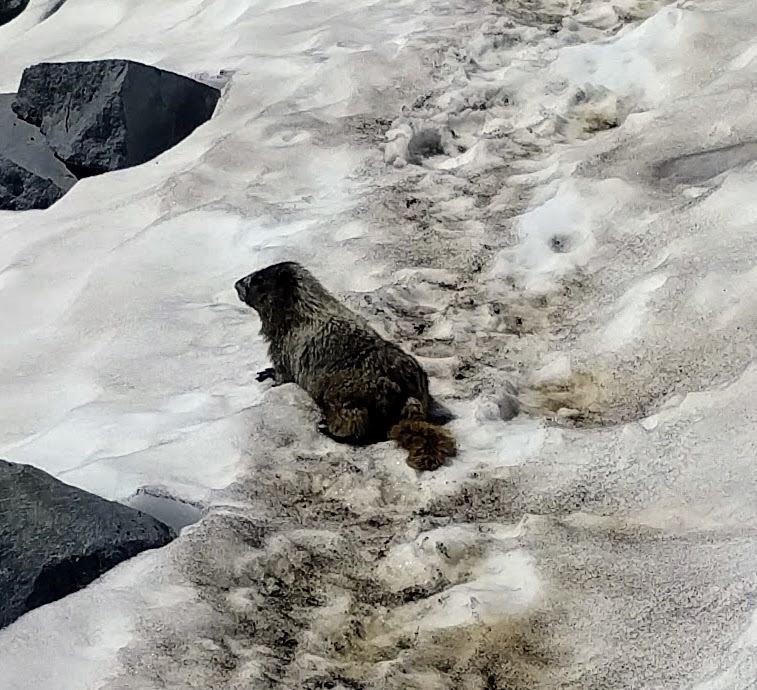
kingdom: Animalia
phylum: Chordata
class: Mammalia
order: Rodentia
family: Sciuridae
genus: Marmota
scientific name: Marmota caligata
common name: Hoary marmot
